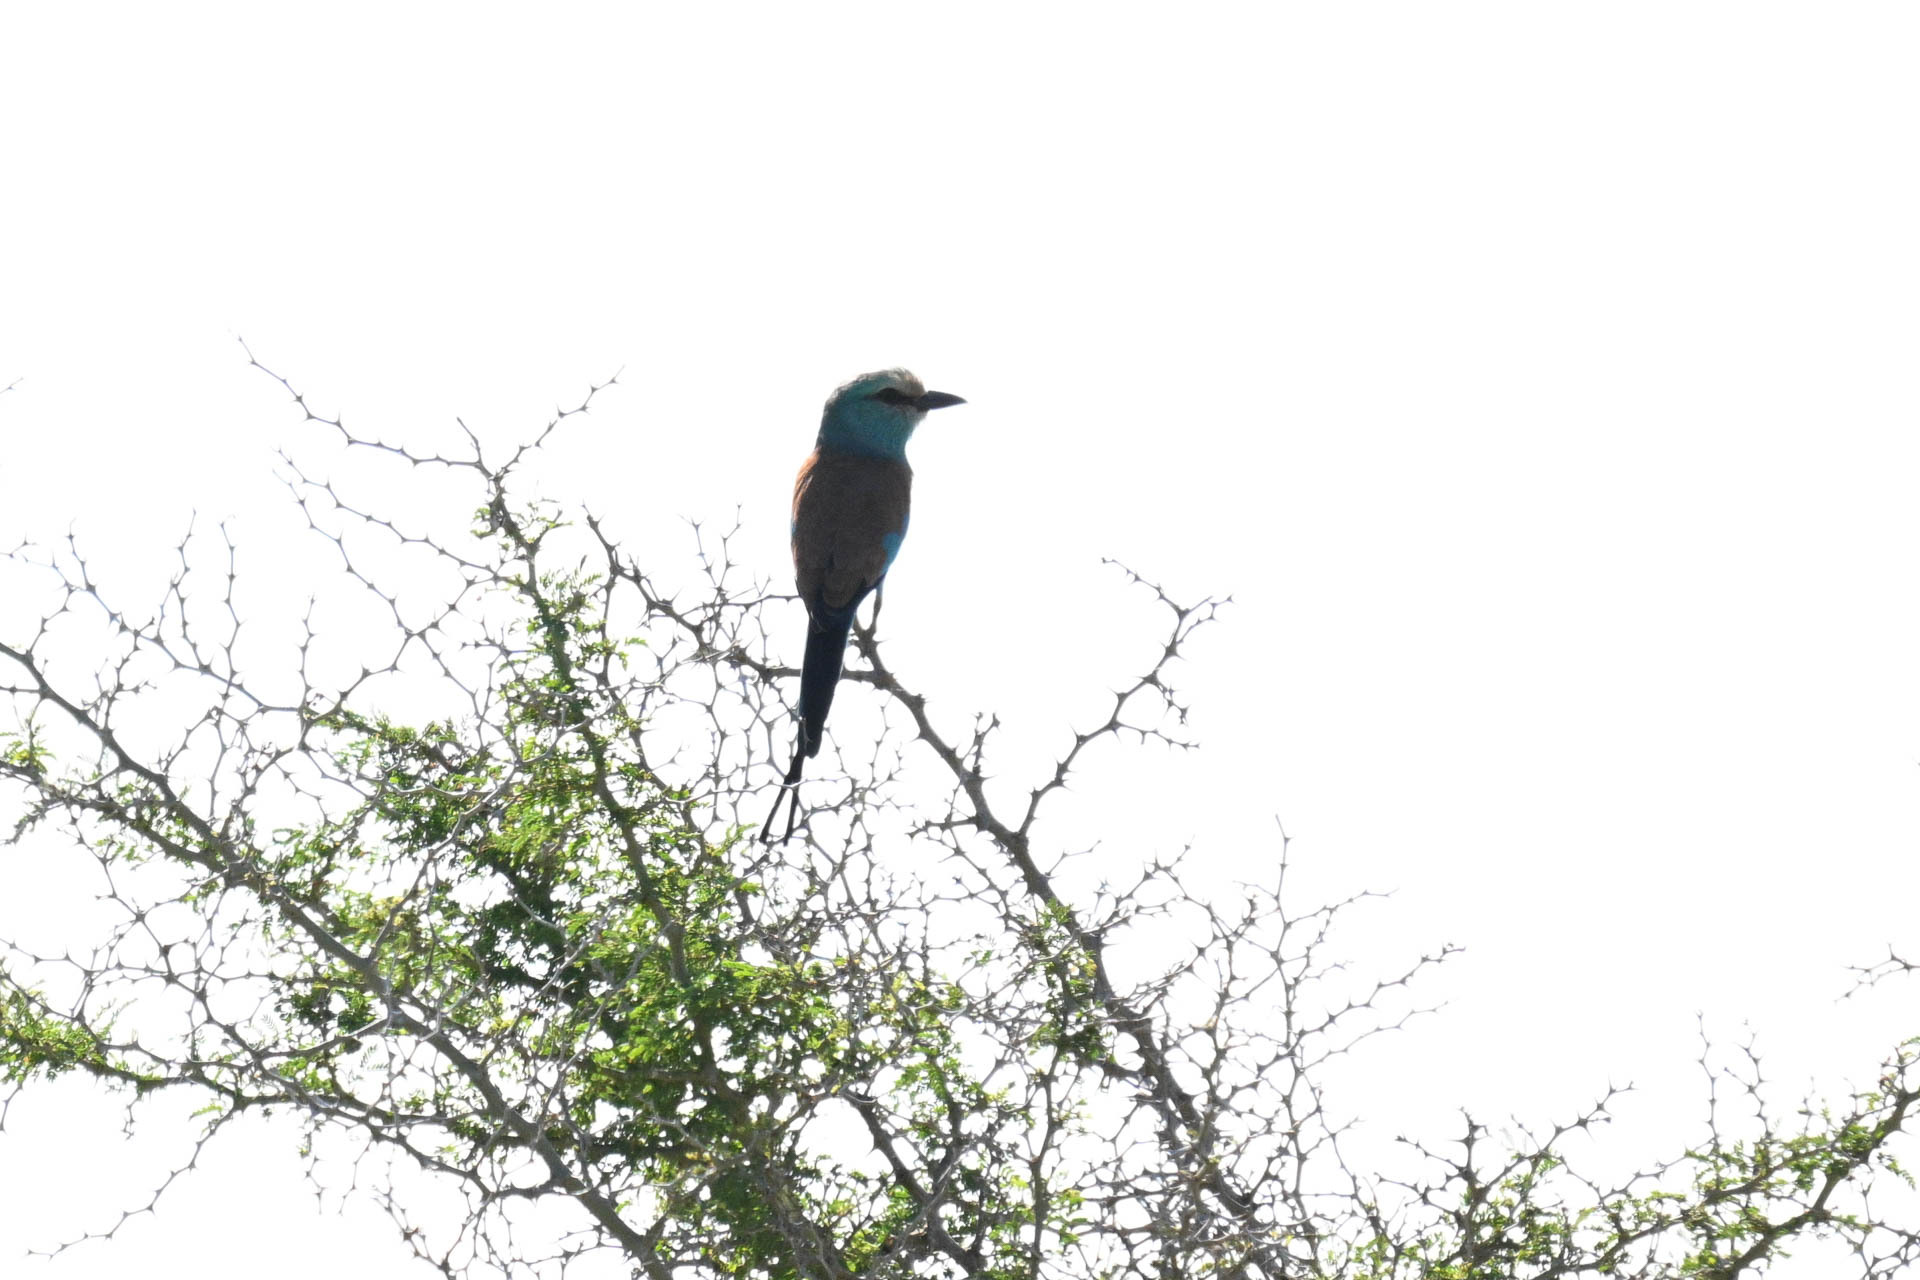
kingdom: Animalia
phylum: Chordata
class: Aves
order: Coraciiformes
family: Coraciidae
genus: Coracias
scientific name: Coracias abyssinicus
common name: Abyssinian roller
